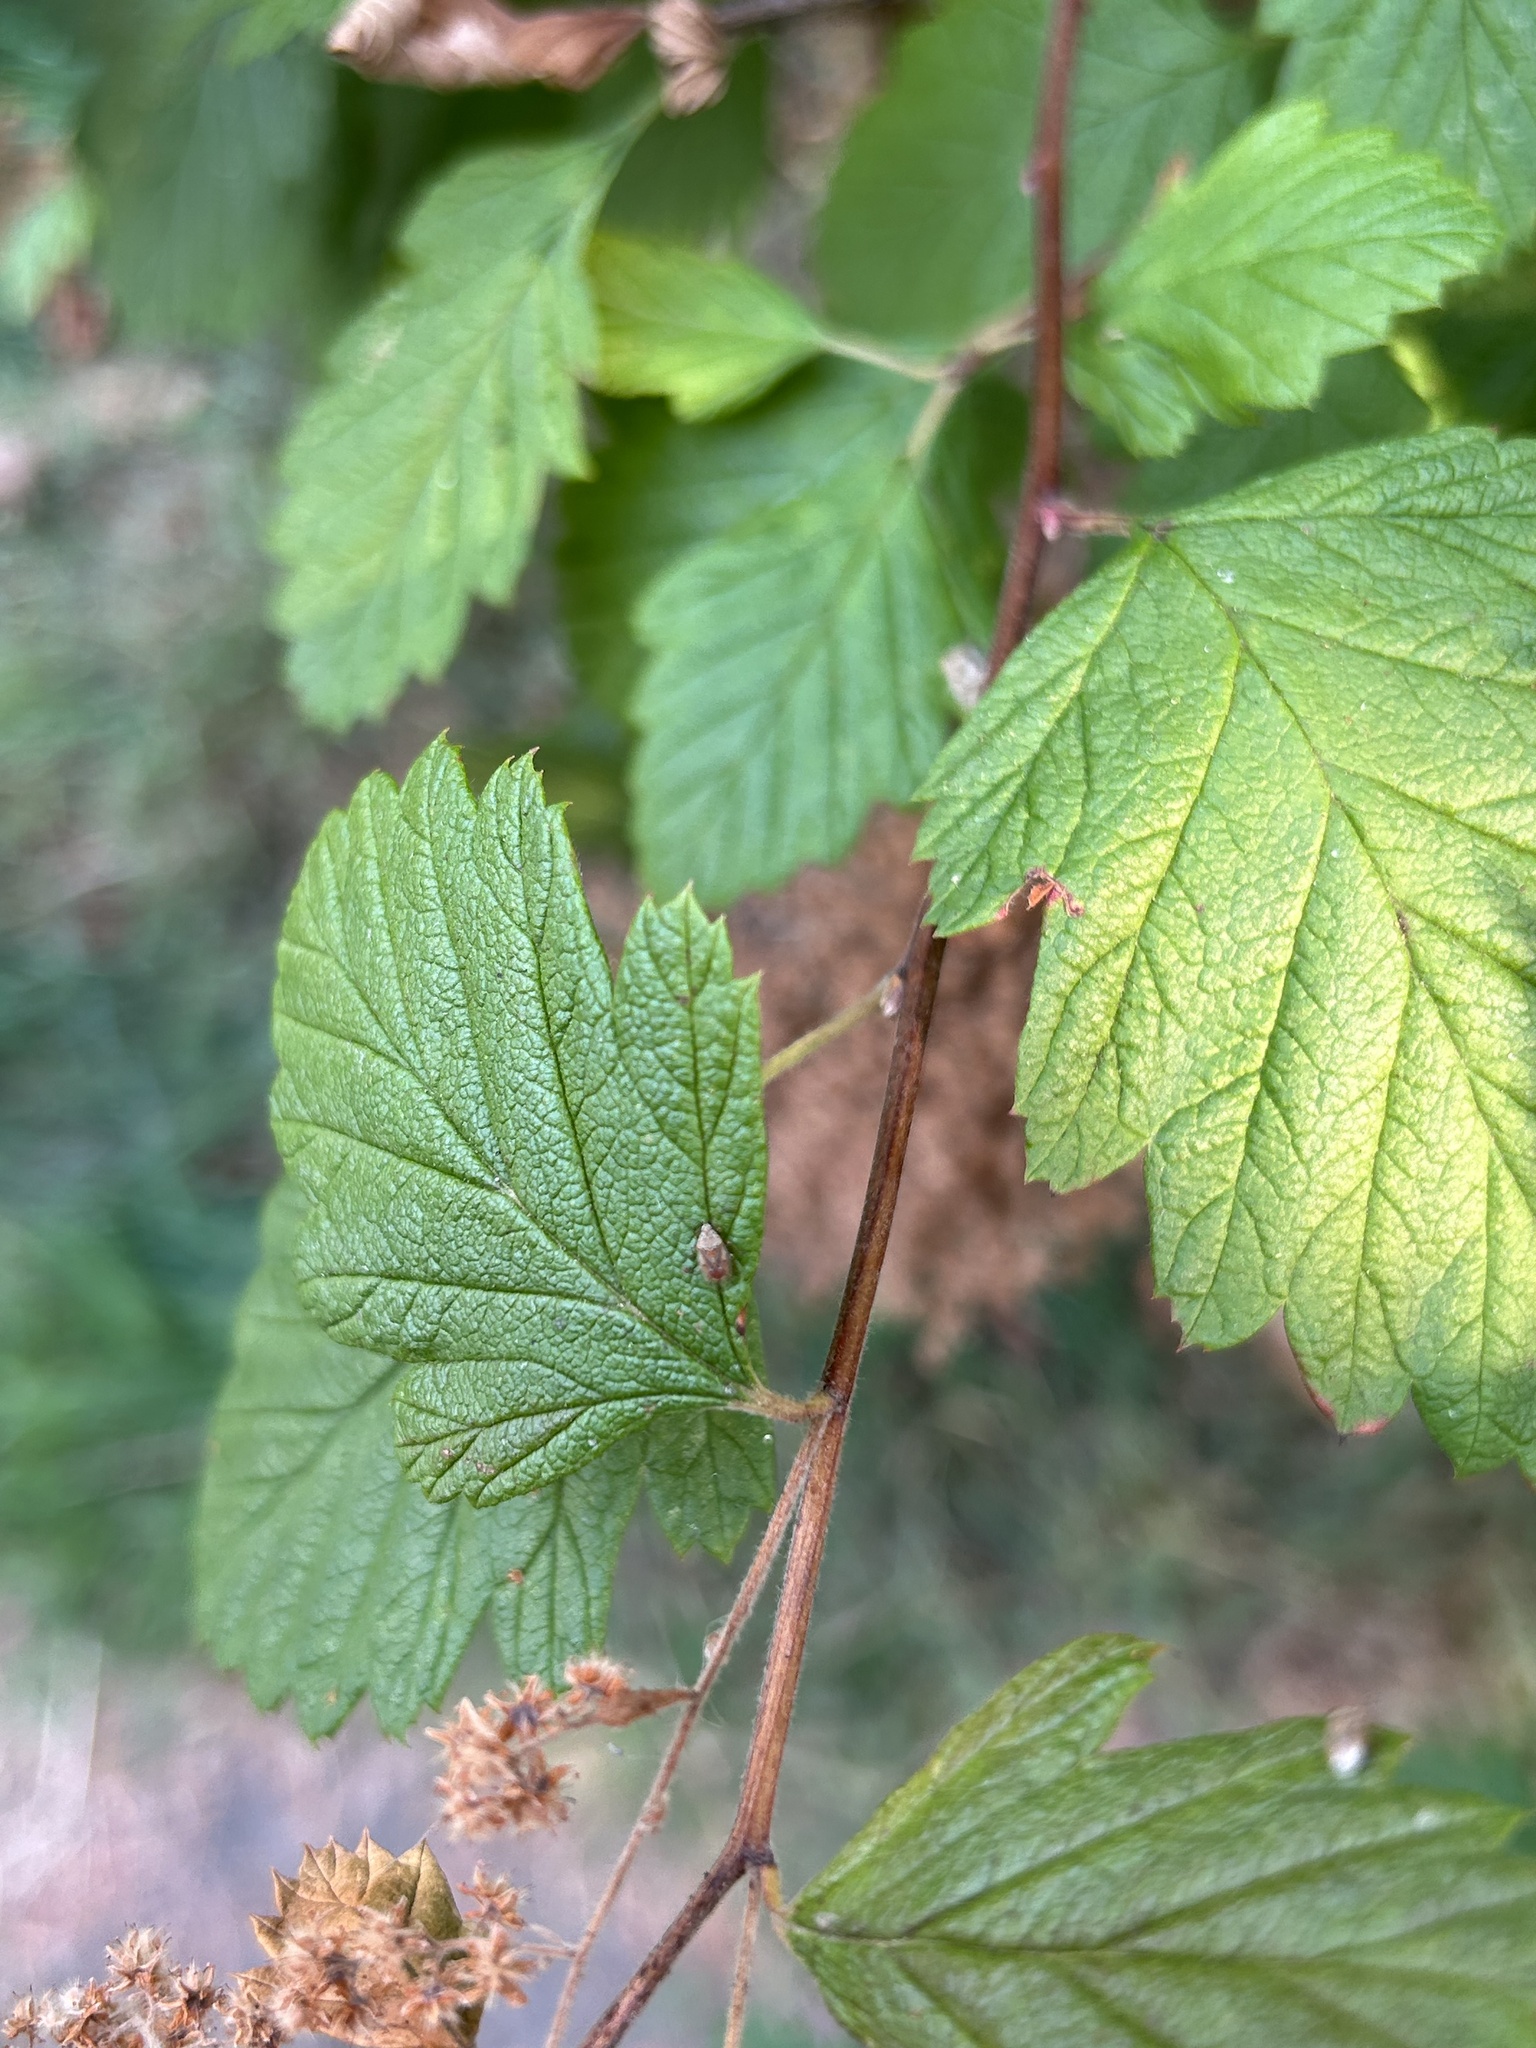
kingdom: Plantae
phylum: Tracheophyta
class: Magnoliopsida
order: Rosales
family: Rosaceae
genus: Holodiscus
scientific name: Holodiscus discolor
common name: Oceanspray
